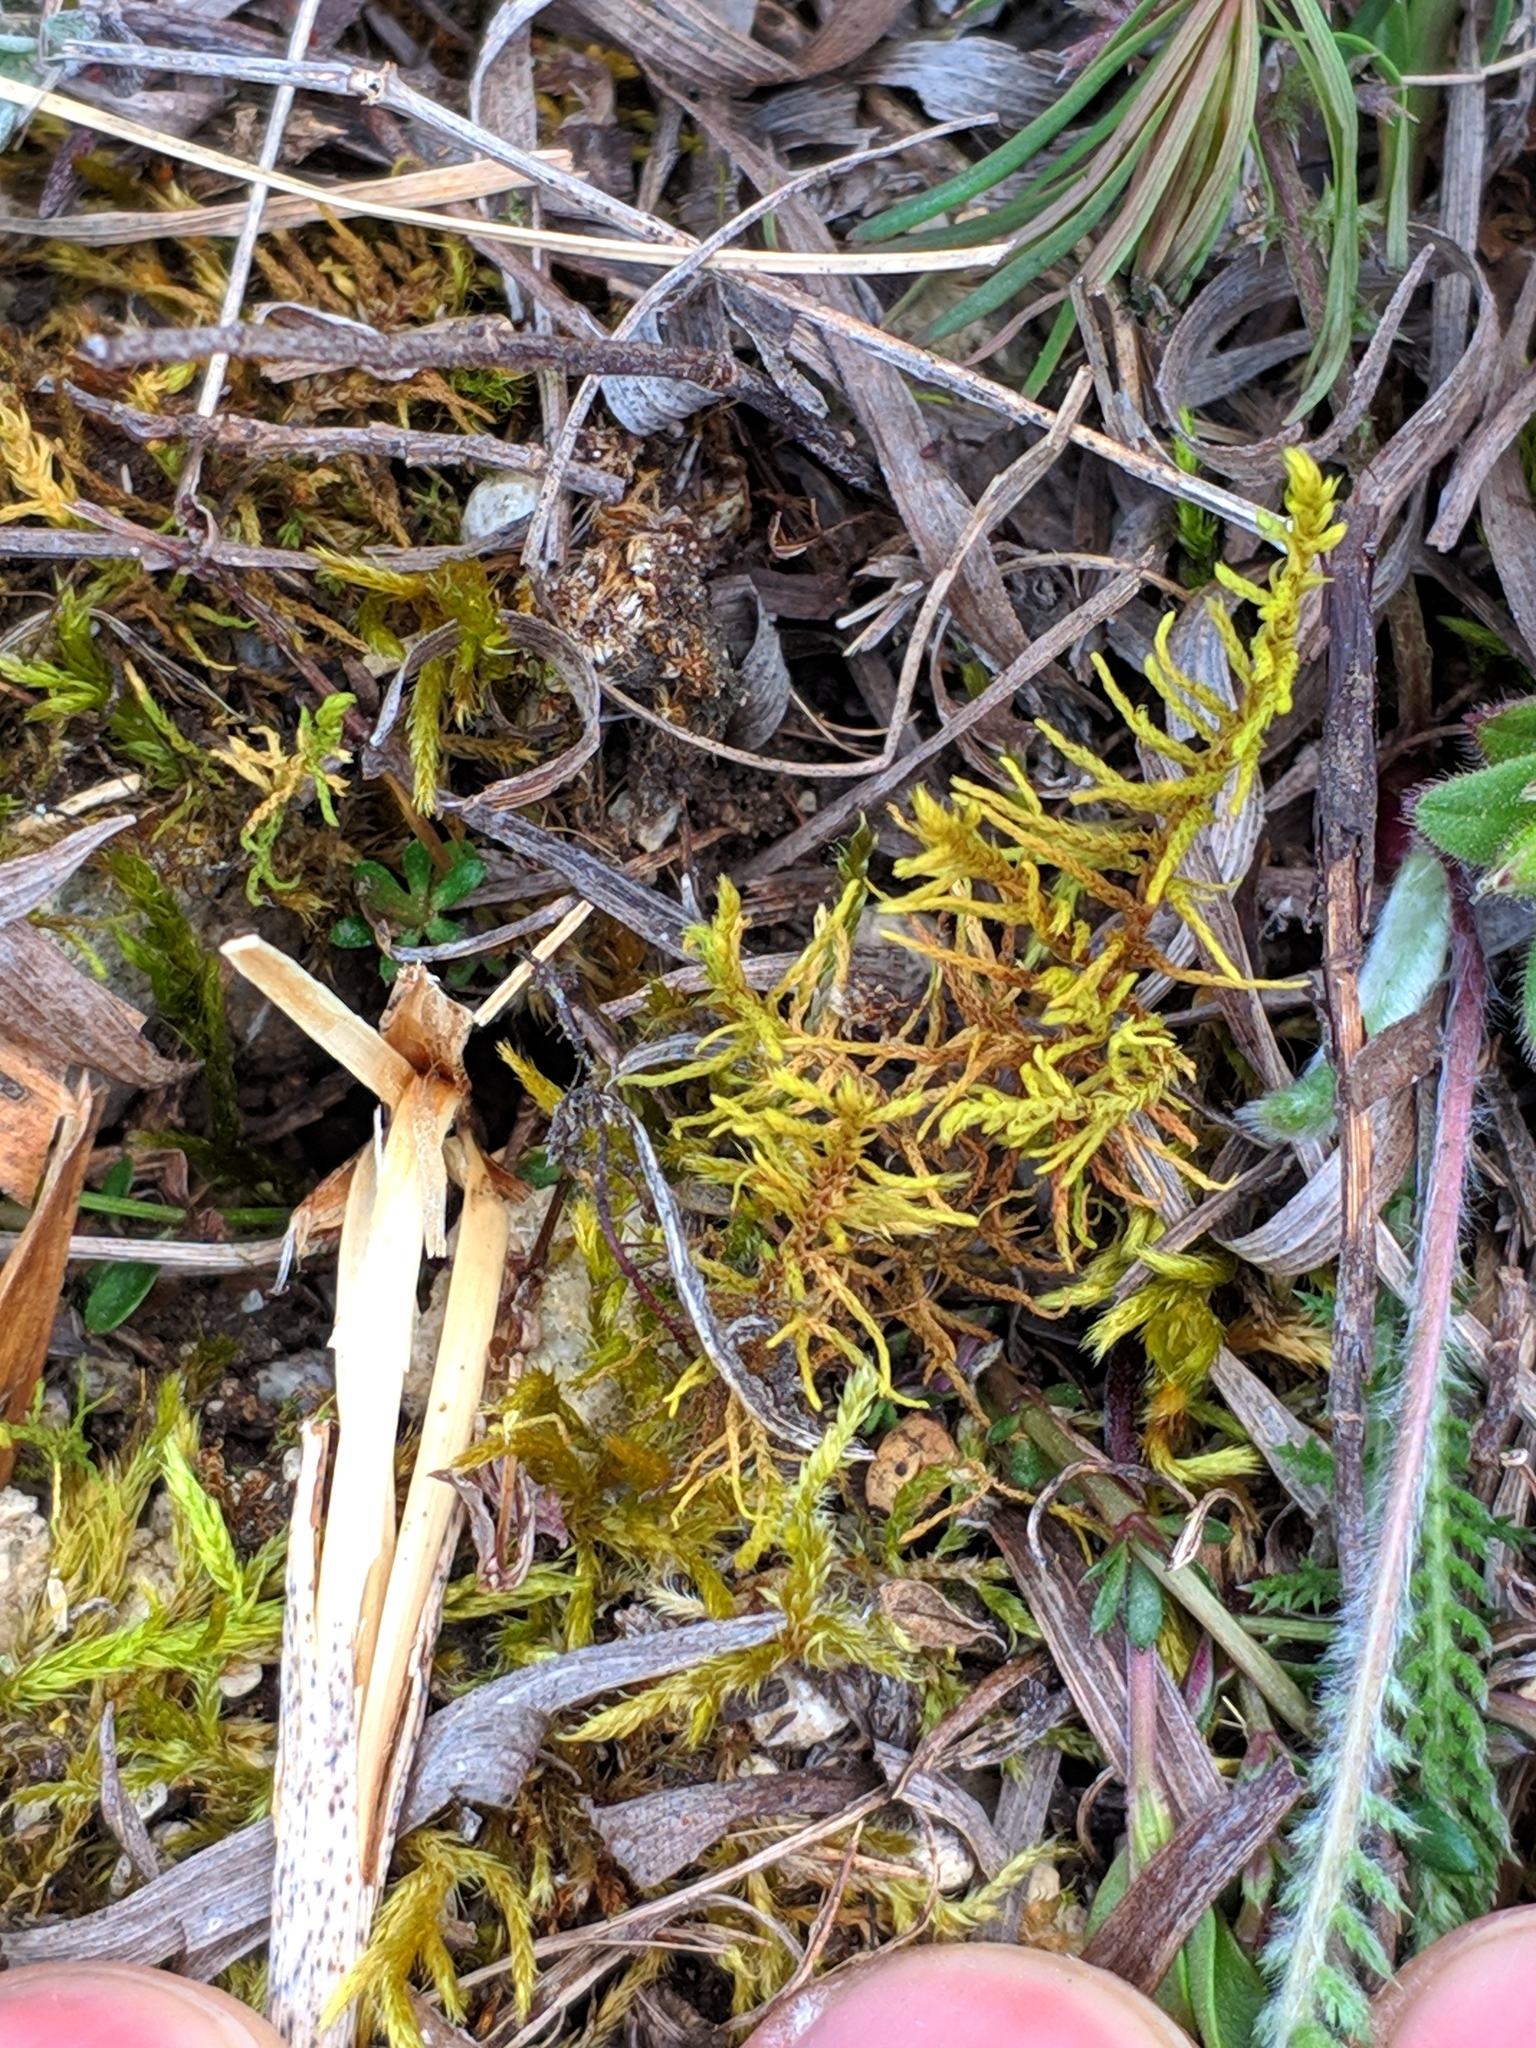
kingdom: Plantae
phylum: Bryophyta
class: Bryopsida
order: Hypnales
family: Thuidiaceae
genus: Abietinella
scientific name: Abietinella abietina
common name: Wiry fern moss
